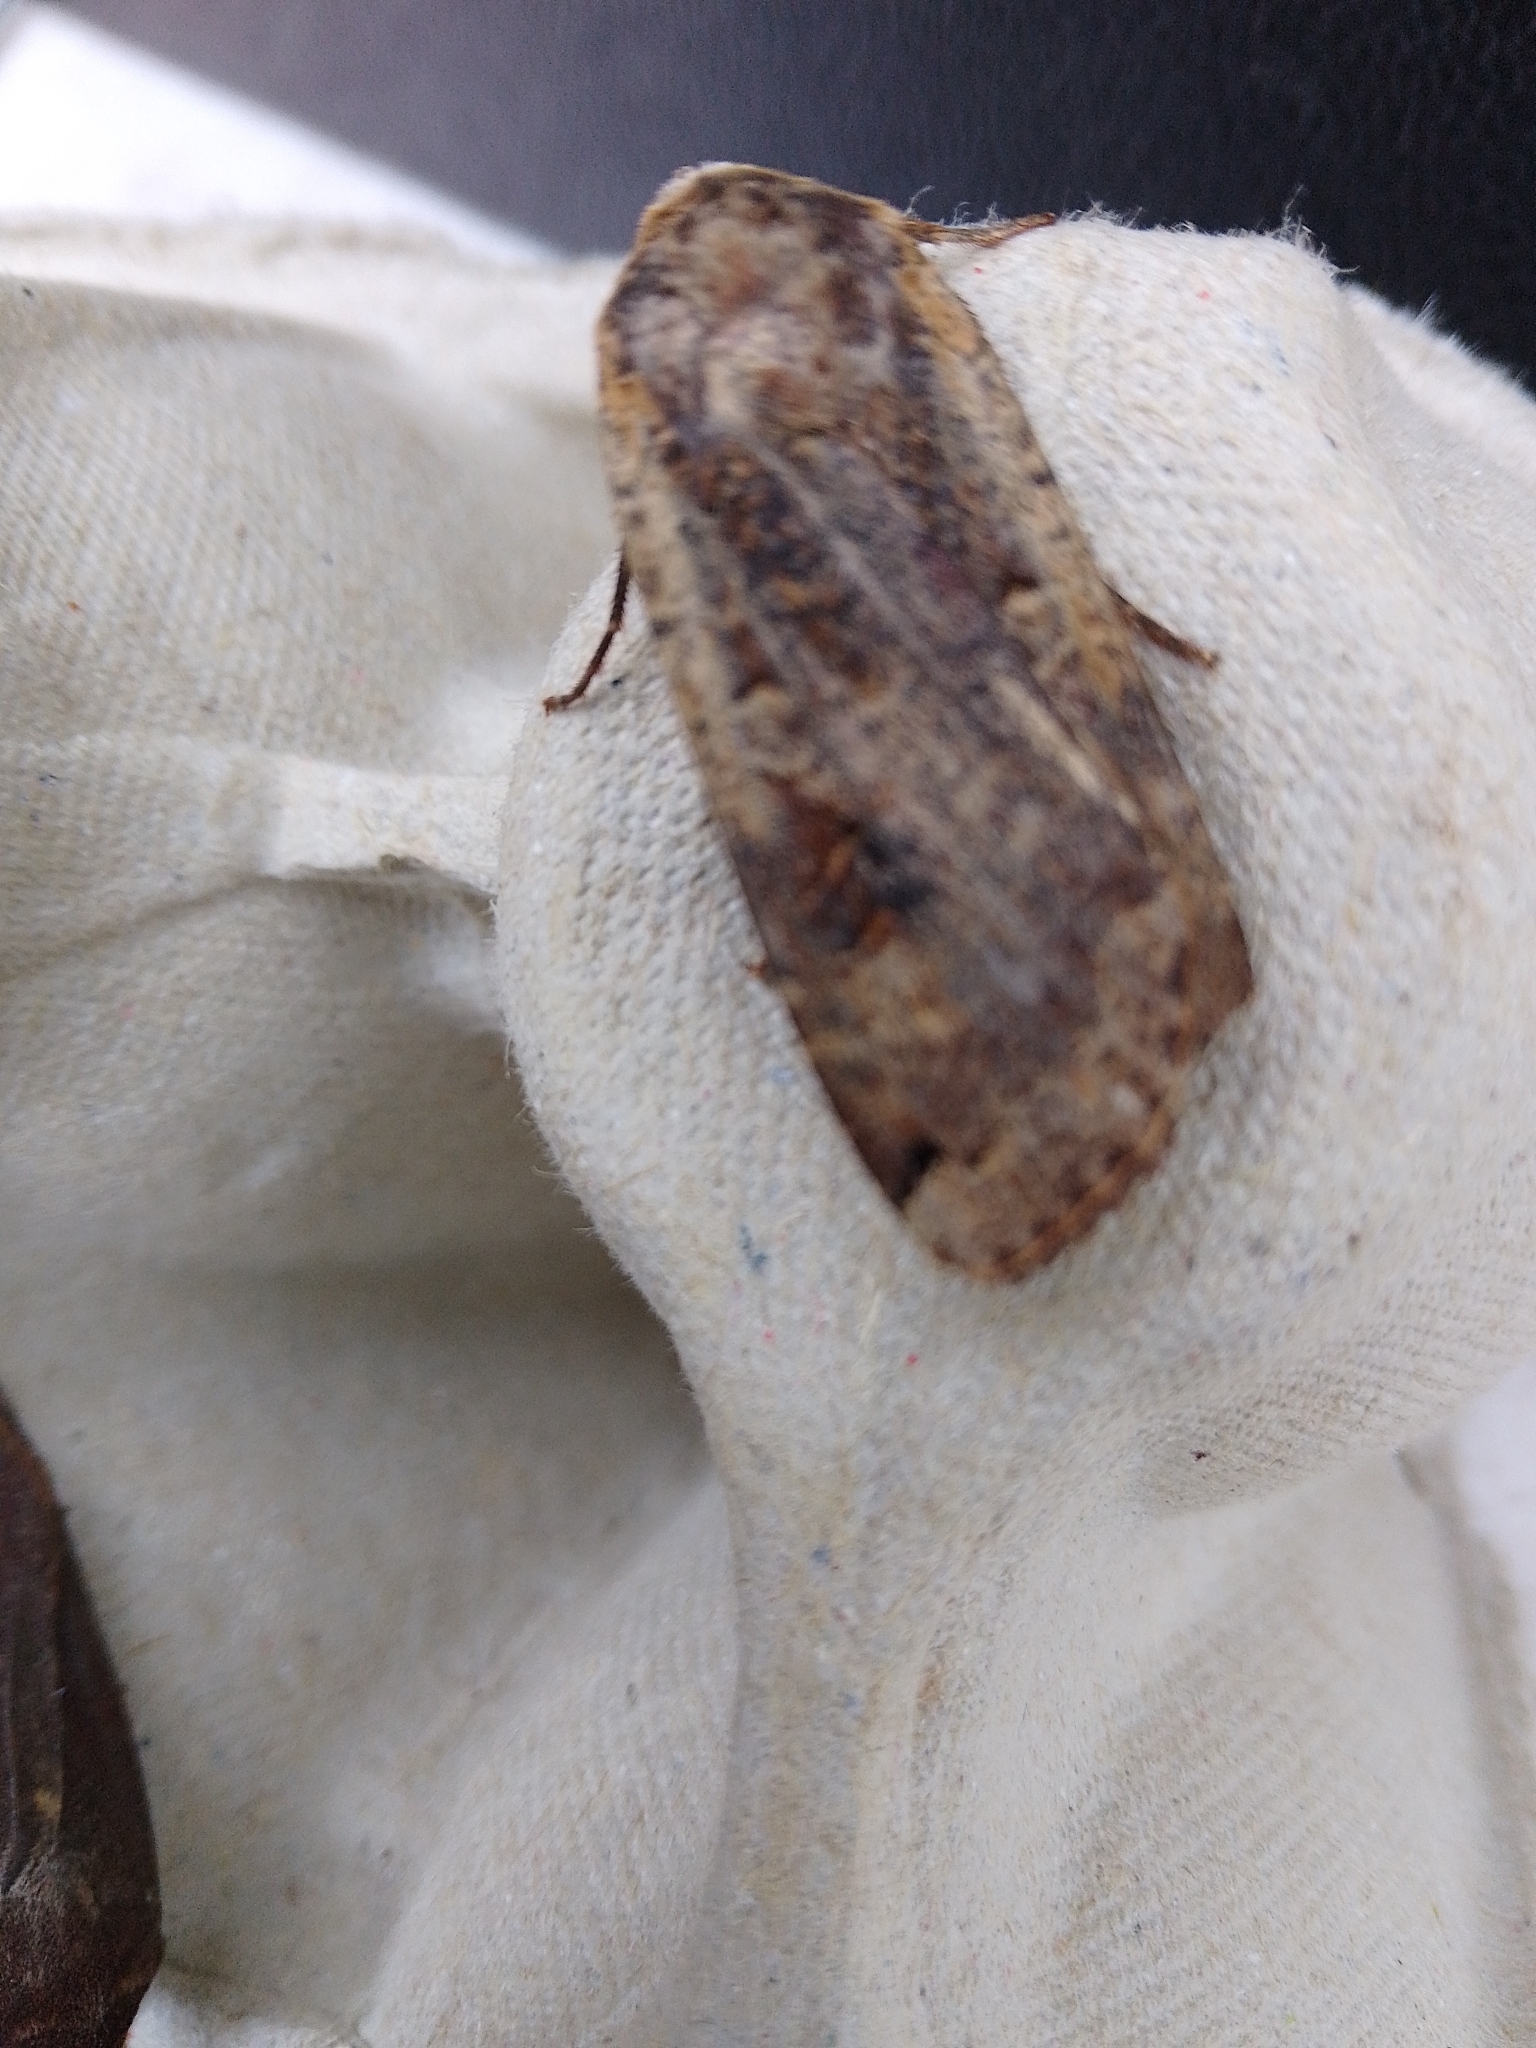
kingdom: Animalia
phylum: Arthropoda
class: Insecta
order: Lepidoptera
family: Noctuidae
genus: Noctua
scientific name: Noctua pronuba
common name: Large yellow underwing
